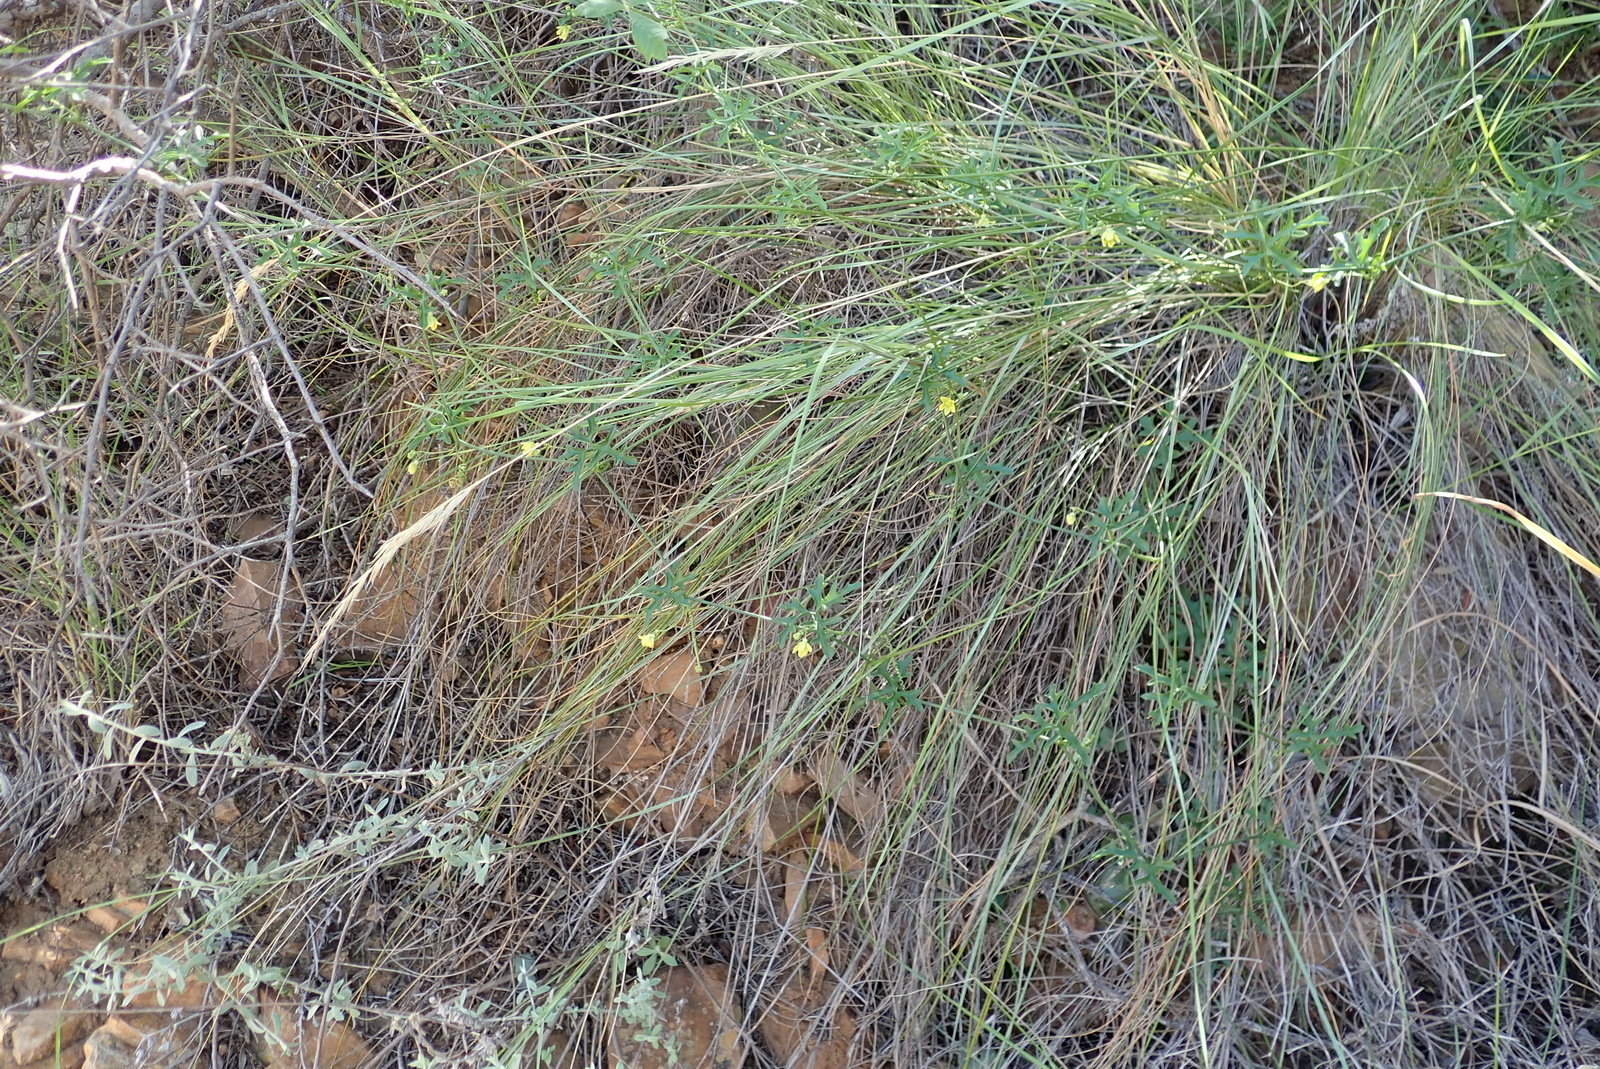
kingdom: Plantae
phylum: Tracheophyta
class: Magnoliopsida
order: Cucurbitales
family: Cucurbitaceae
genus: Kedrostis
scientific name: Kedrostis capensis
